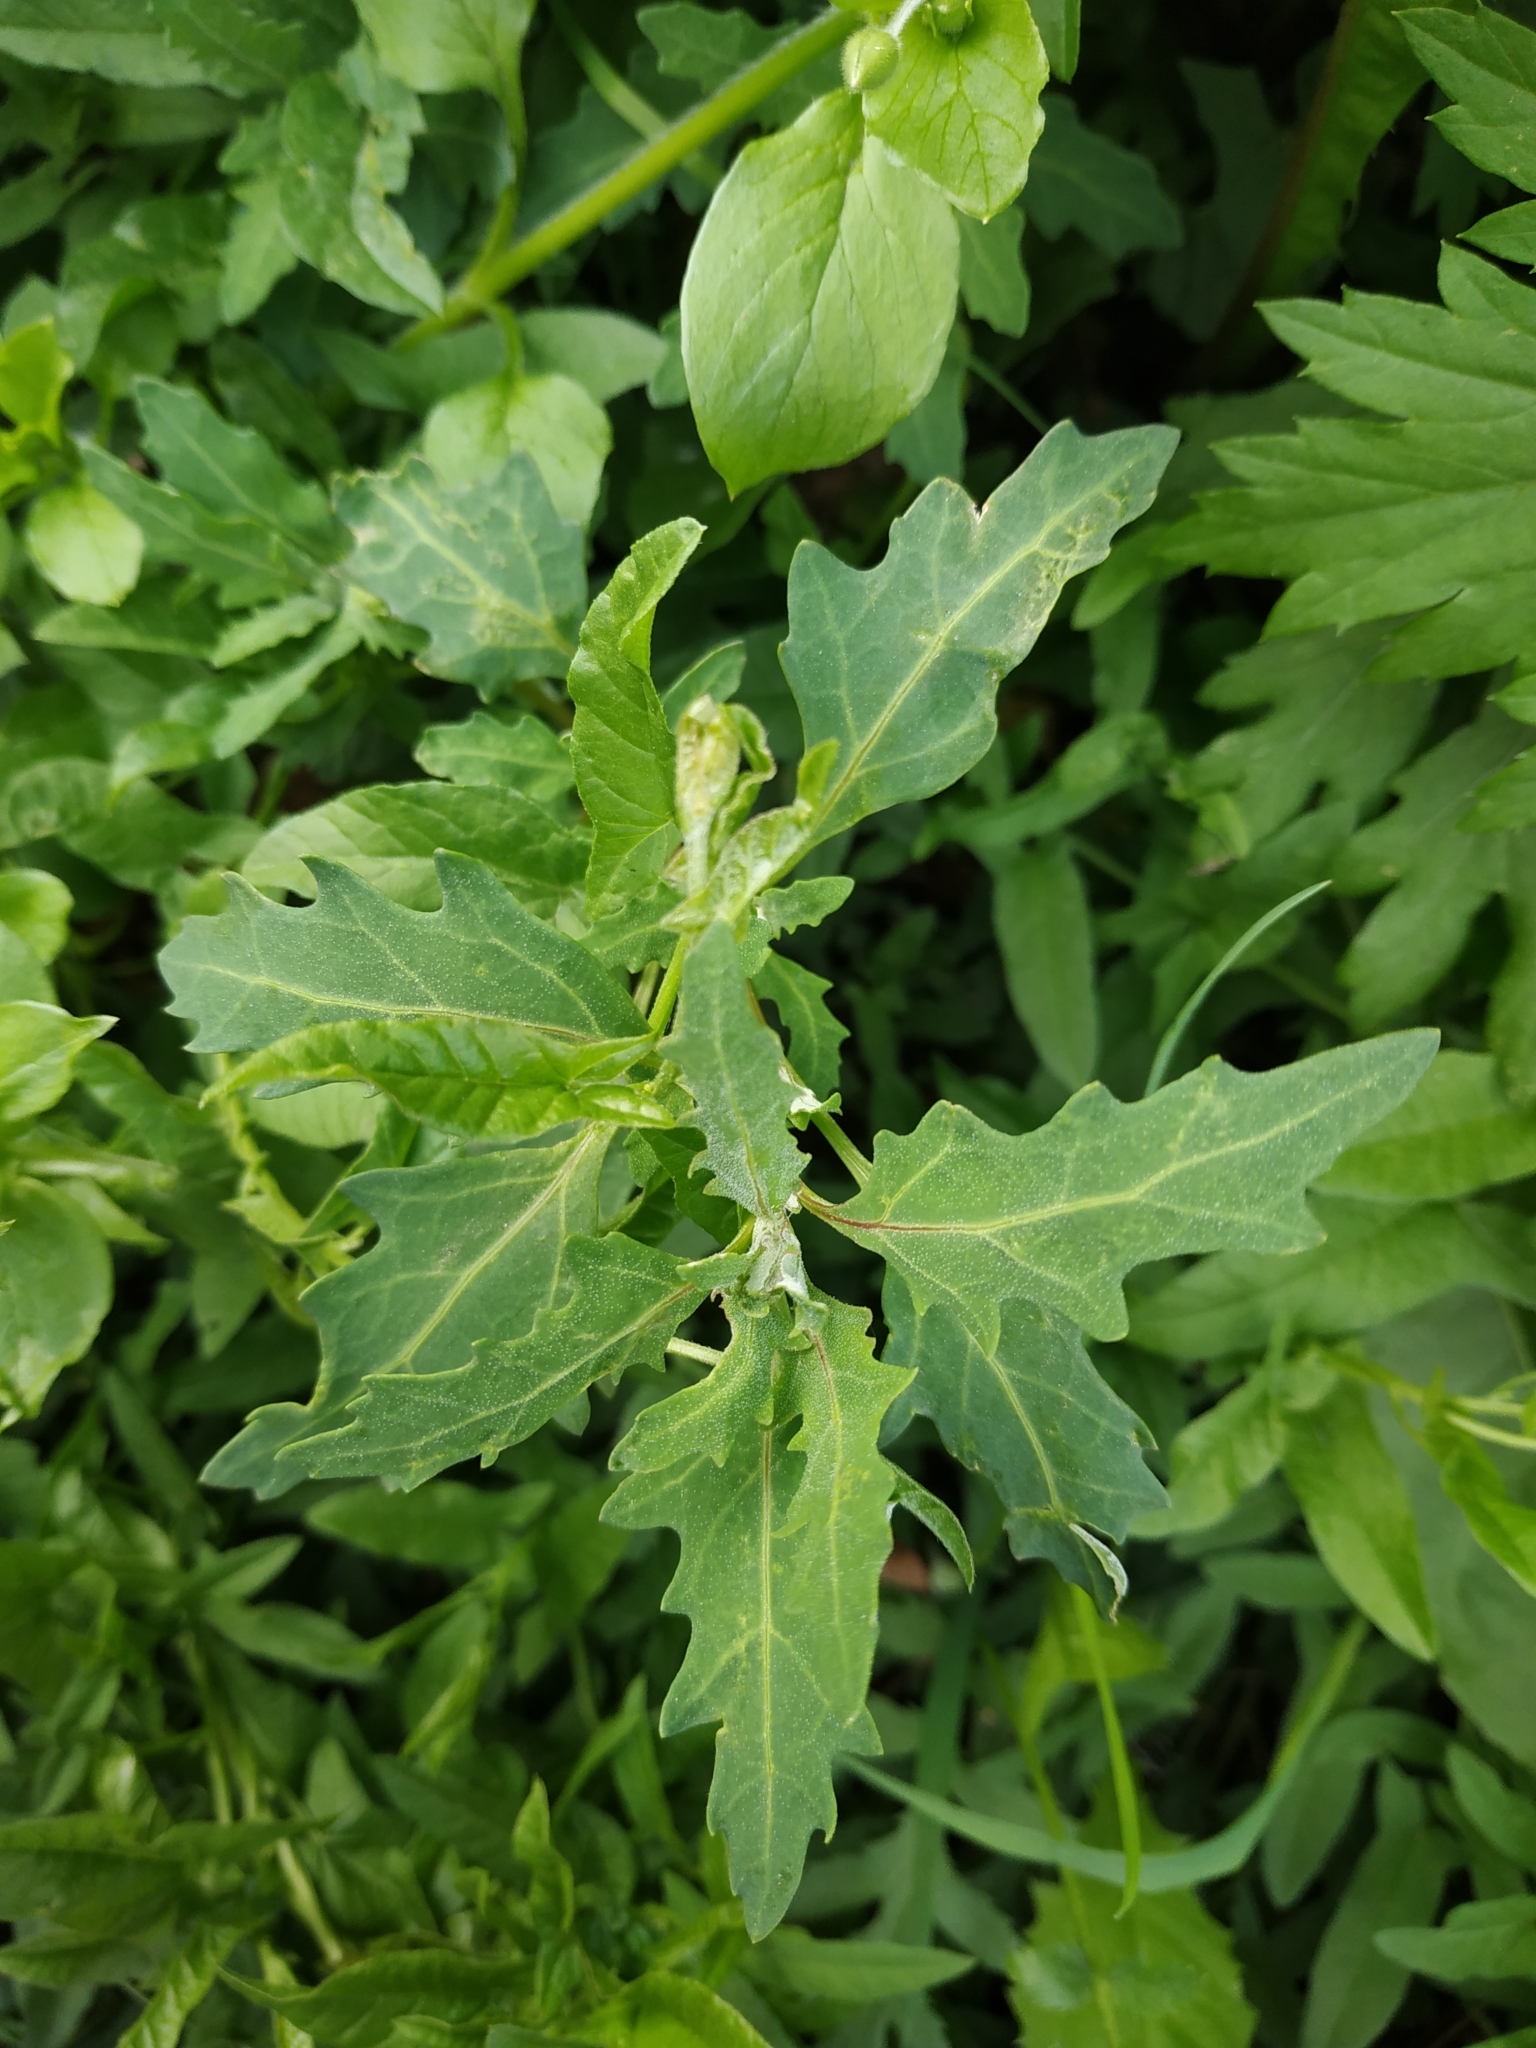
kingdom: Plantae
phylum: Tracheophyta
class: Magnoliopsida
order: Caryophyllales
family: Amaranthaceae
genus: Oxybasis
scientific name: Oxybasis glauca
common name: Glaucous goosefoot
